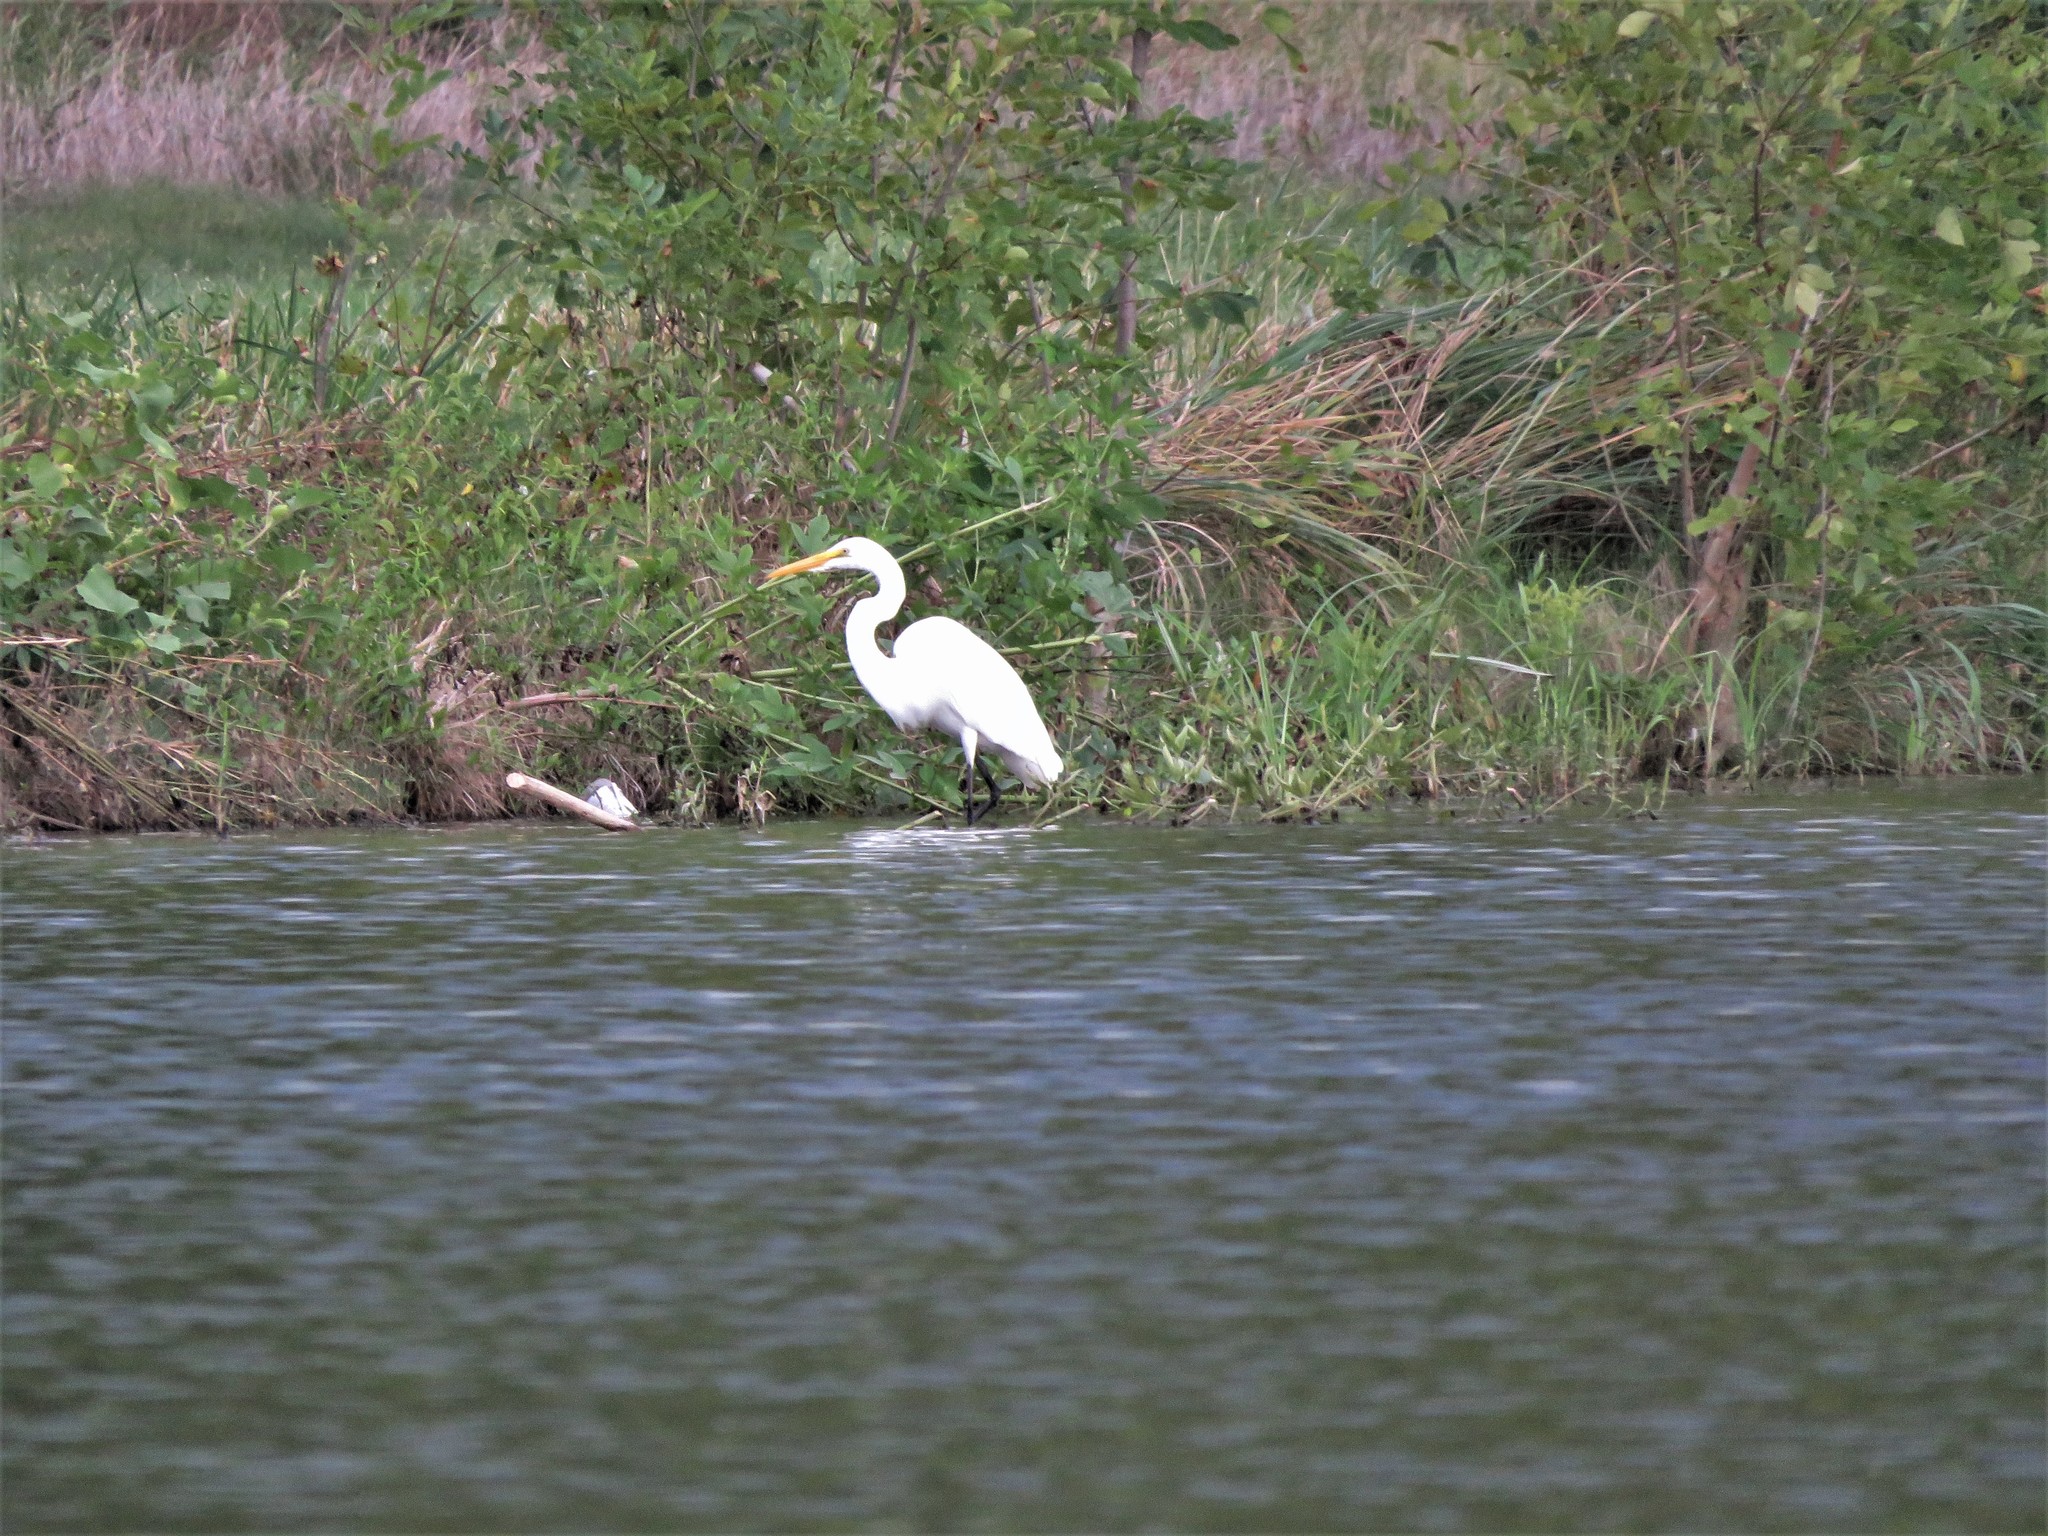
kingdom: Animalia
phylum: Chordata
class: Aves
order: Pelecaniformes
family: Ardeidae
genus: Ardea
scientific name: Ardea alba
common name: Great egret
